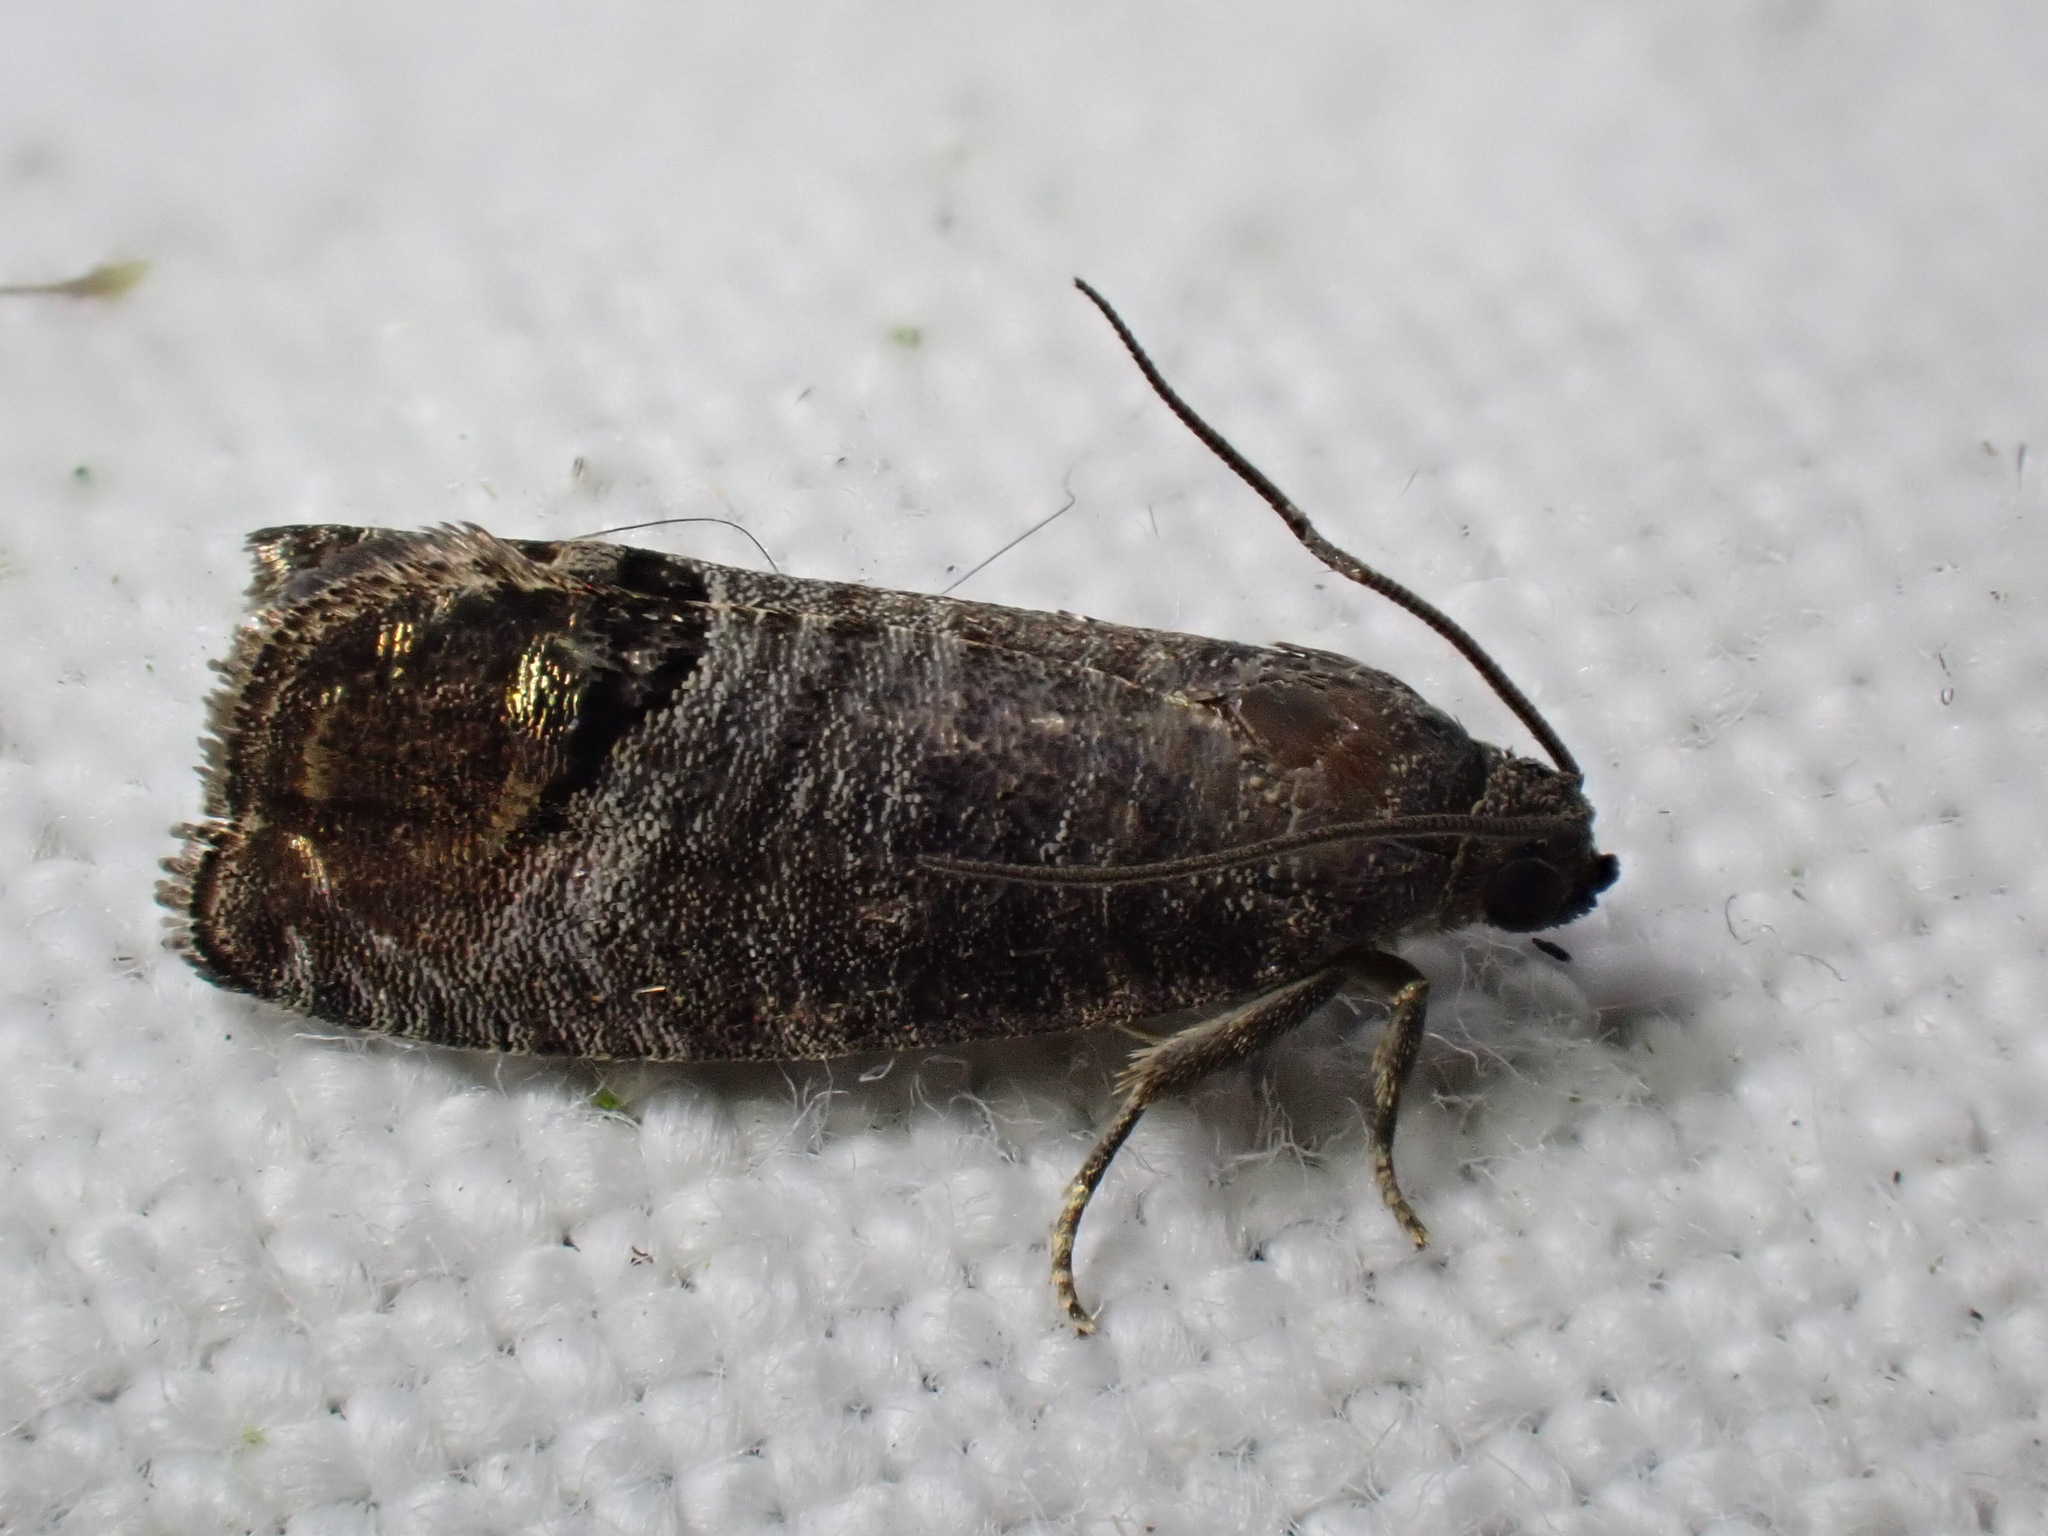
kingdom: Animalia
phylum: Arthropoda
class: Insecta
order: Lepidoptera
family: Tortricidae
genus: Cydia
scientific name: Cydia pomonella
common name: Codling moth
